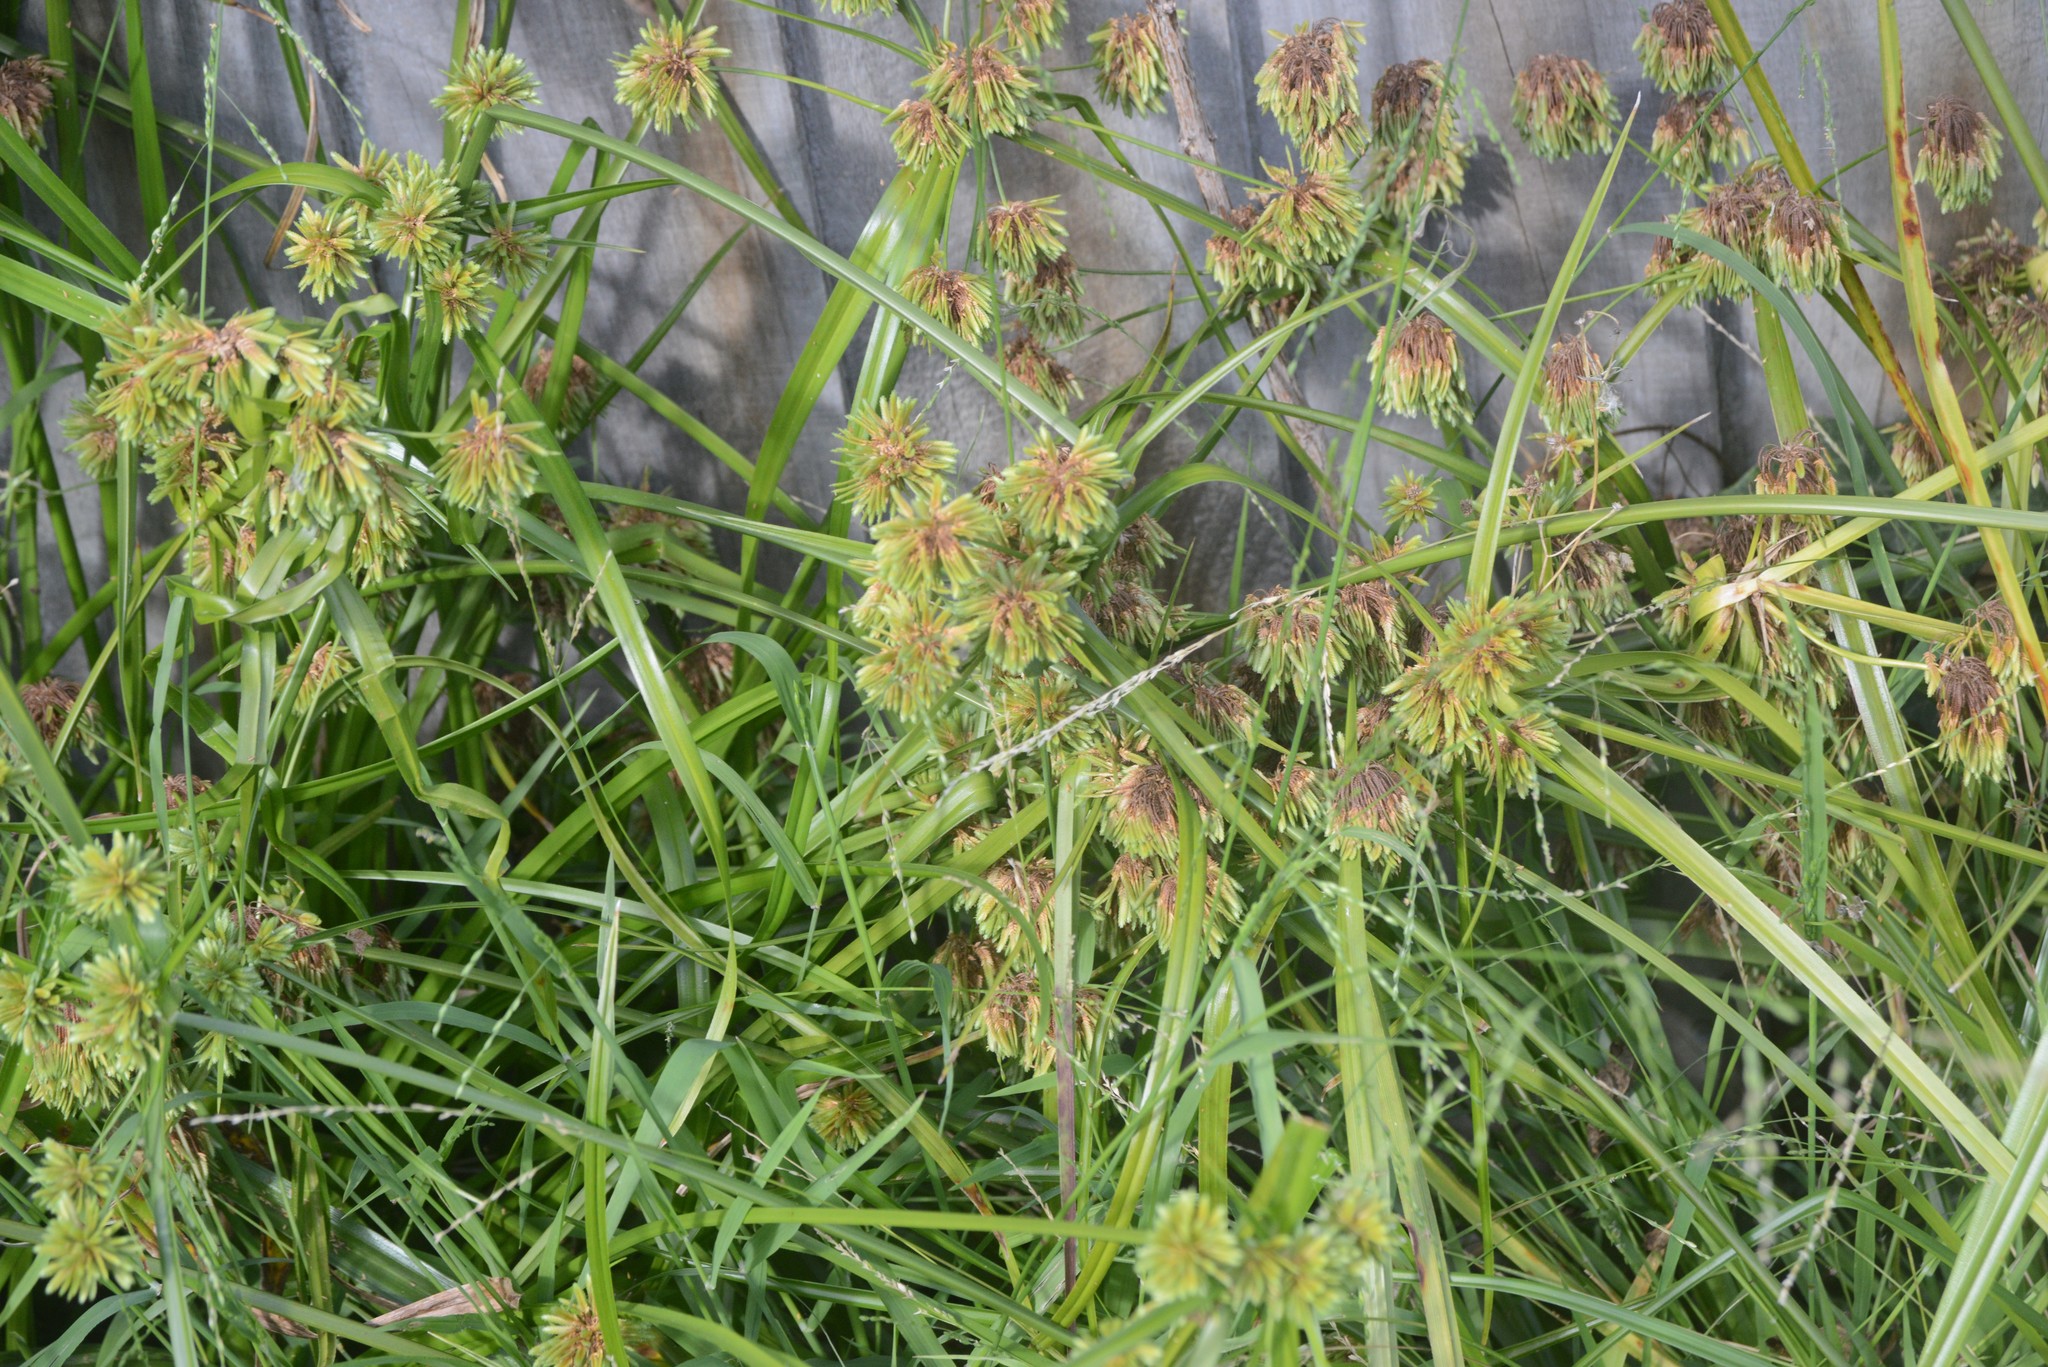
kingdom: Plantae
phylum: Tracheophyta
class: Liliopsida
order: Poales
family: Cyperaceae
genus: Cyperus
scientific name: Cyperus eragrostis
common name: Tall flatsedge
